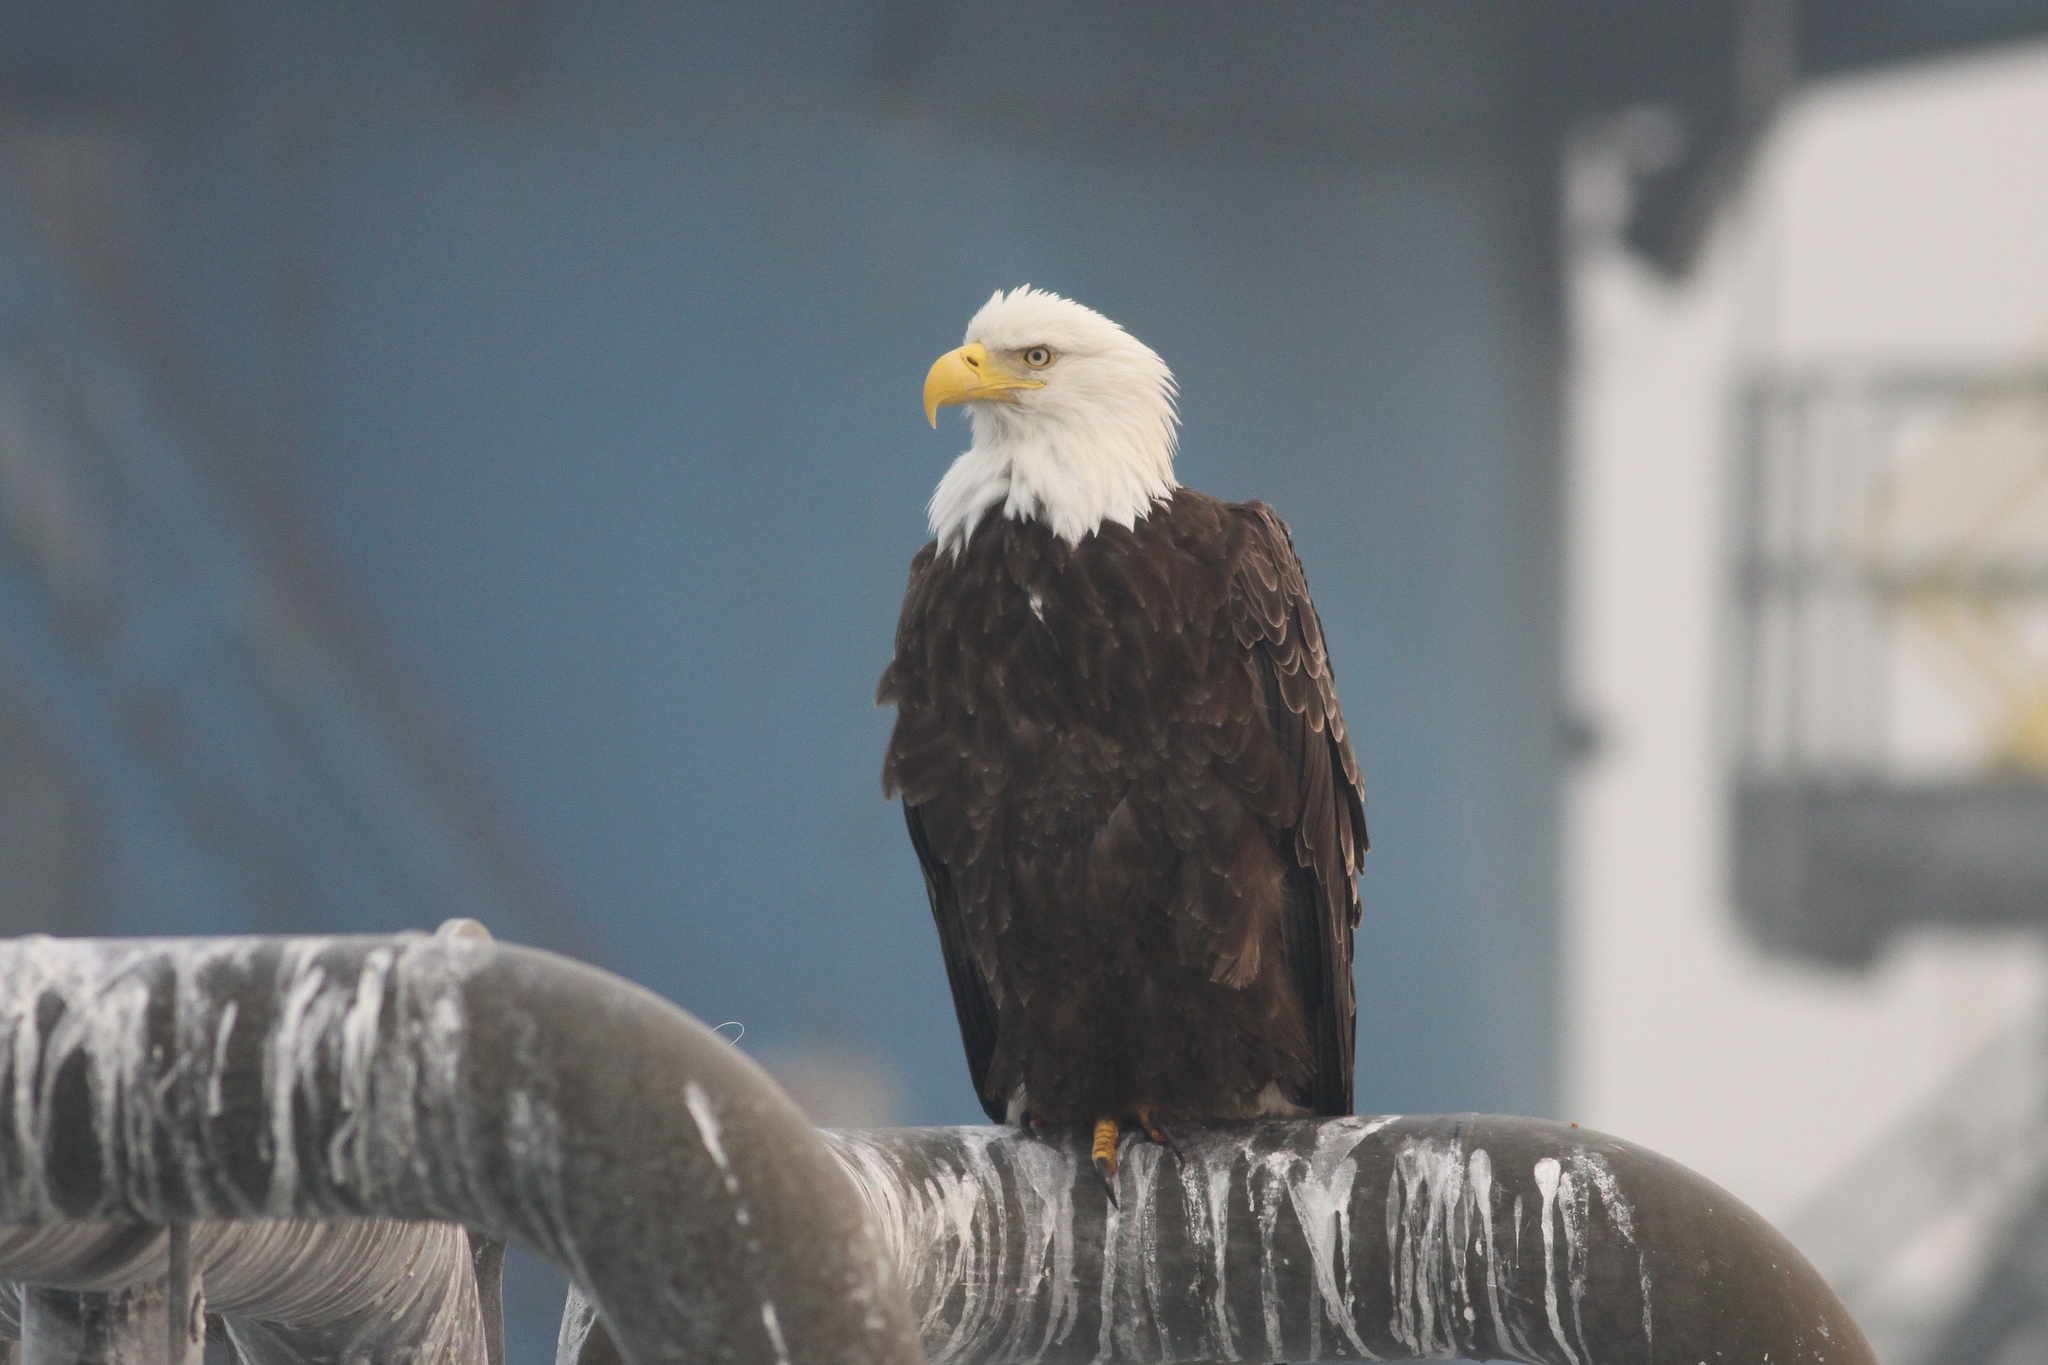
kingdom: Animalia
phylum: Chordata
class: Aves
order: Accipitriformes
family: Accipitridae
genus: Haliaeetus
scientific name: Haliaeetus leucocephalus
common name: Bald eagle
